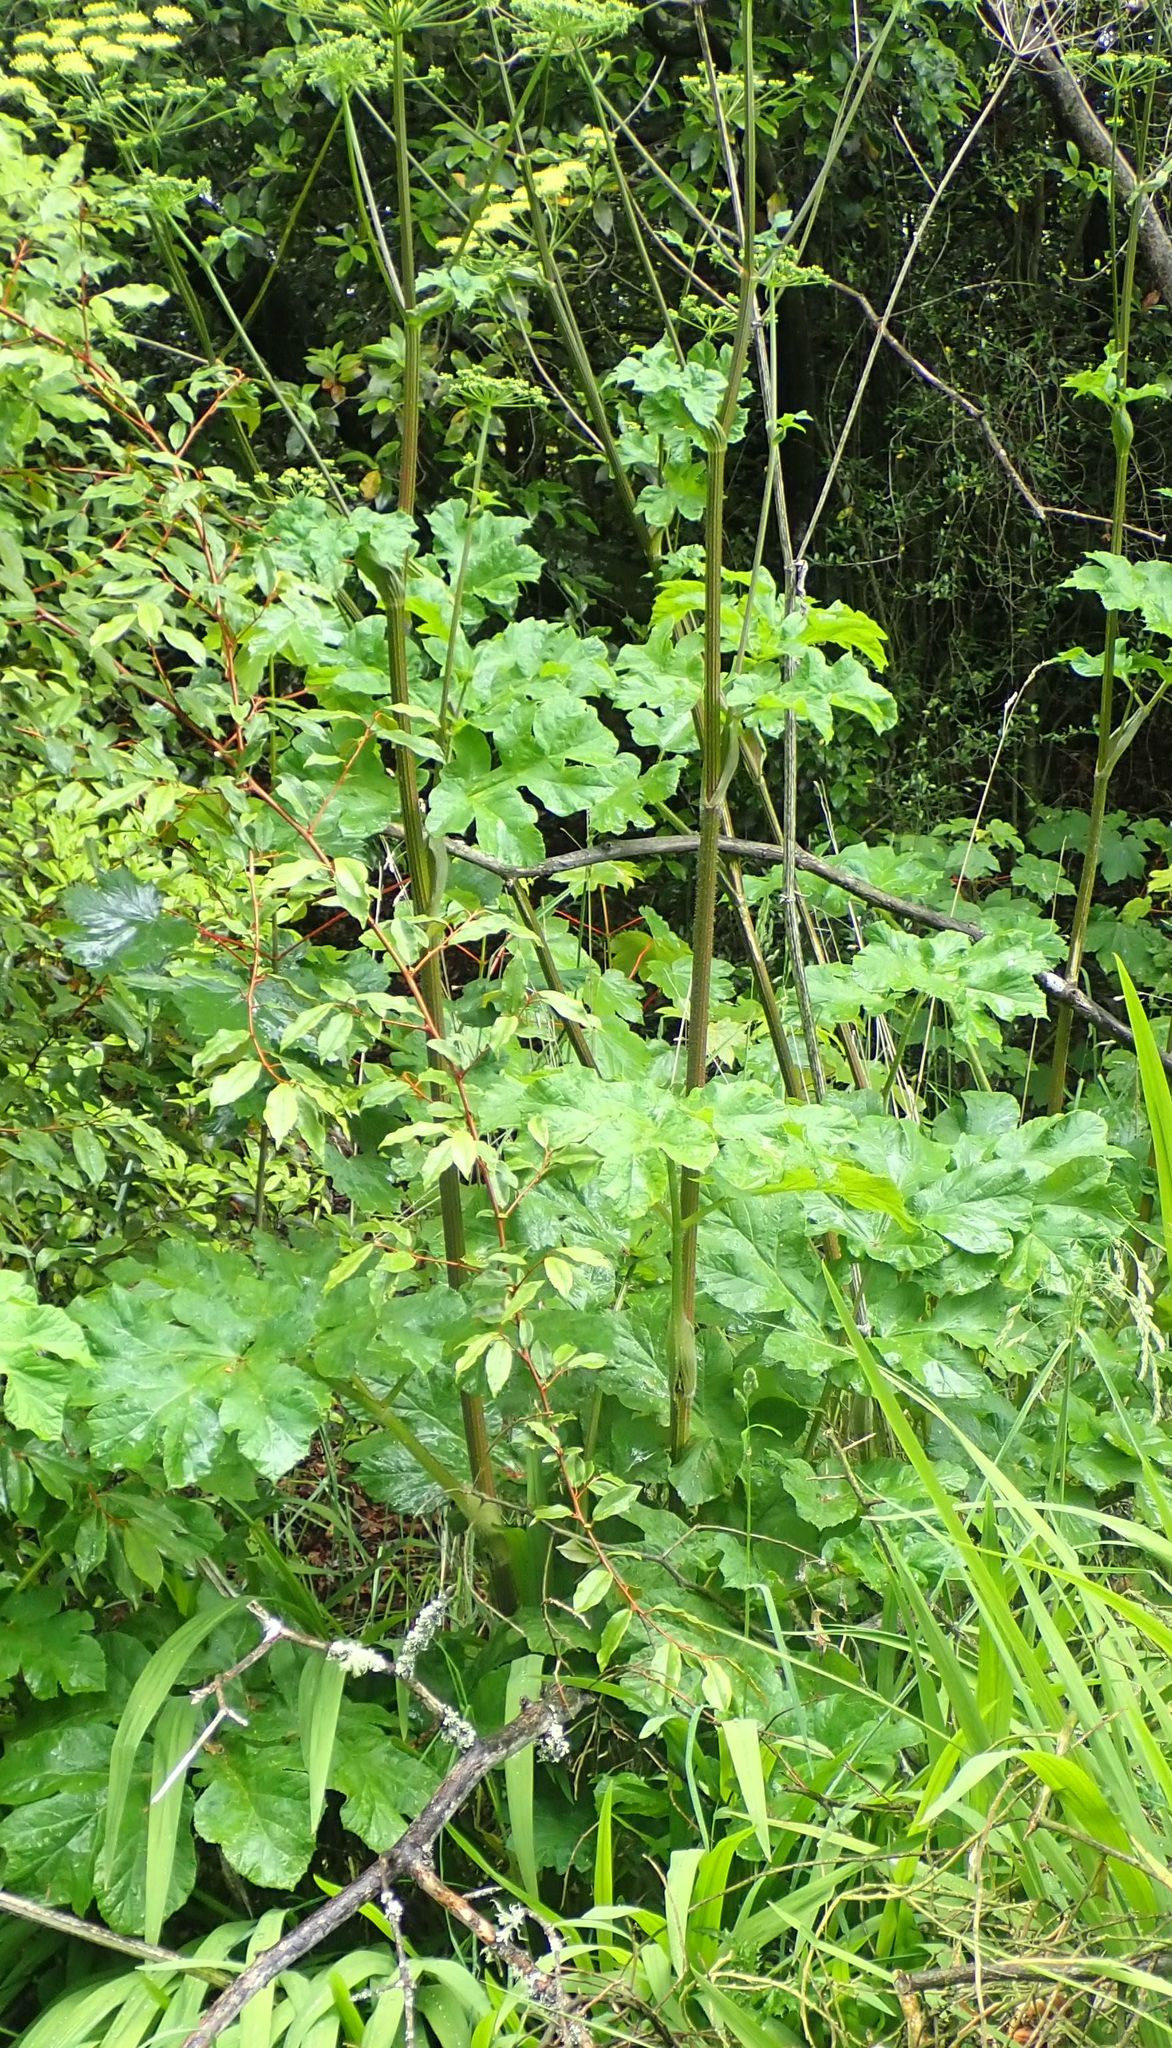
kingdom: Plantae
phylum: Tracheophyta
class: Magnoliopsida
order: Apiales
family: Apiaceae
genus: Heracleum
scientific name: Heracleum mantegazzianum
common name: Giant hogweed
